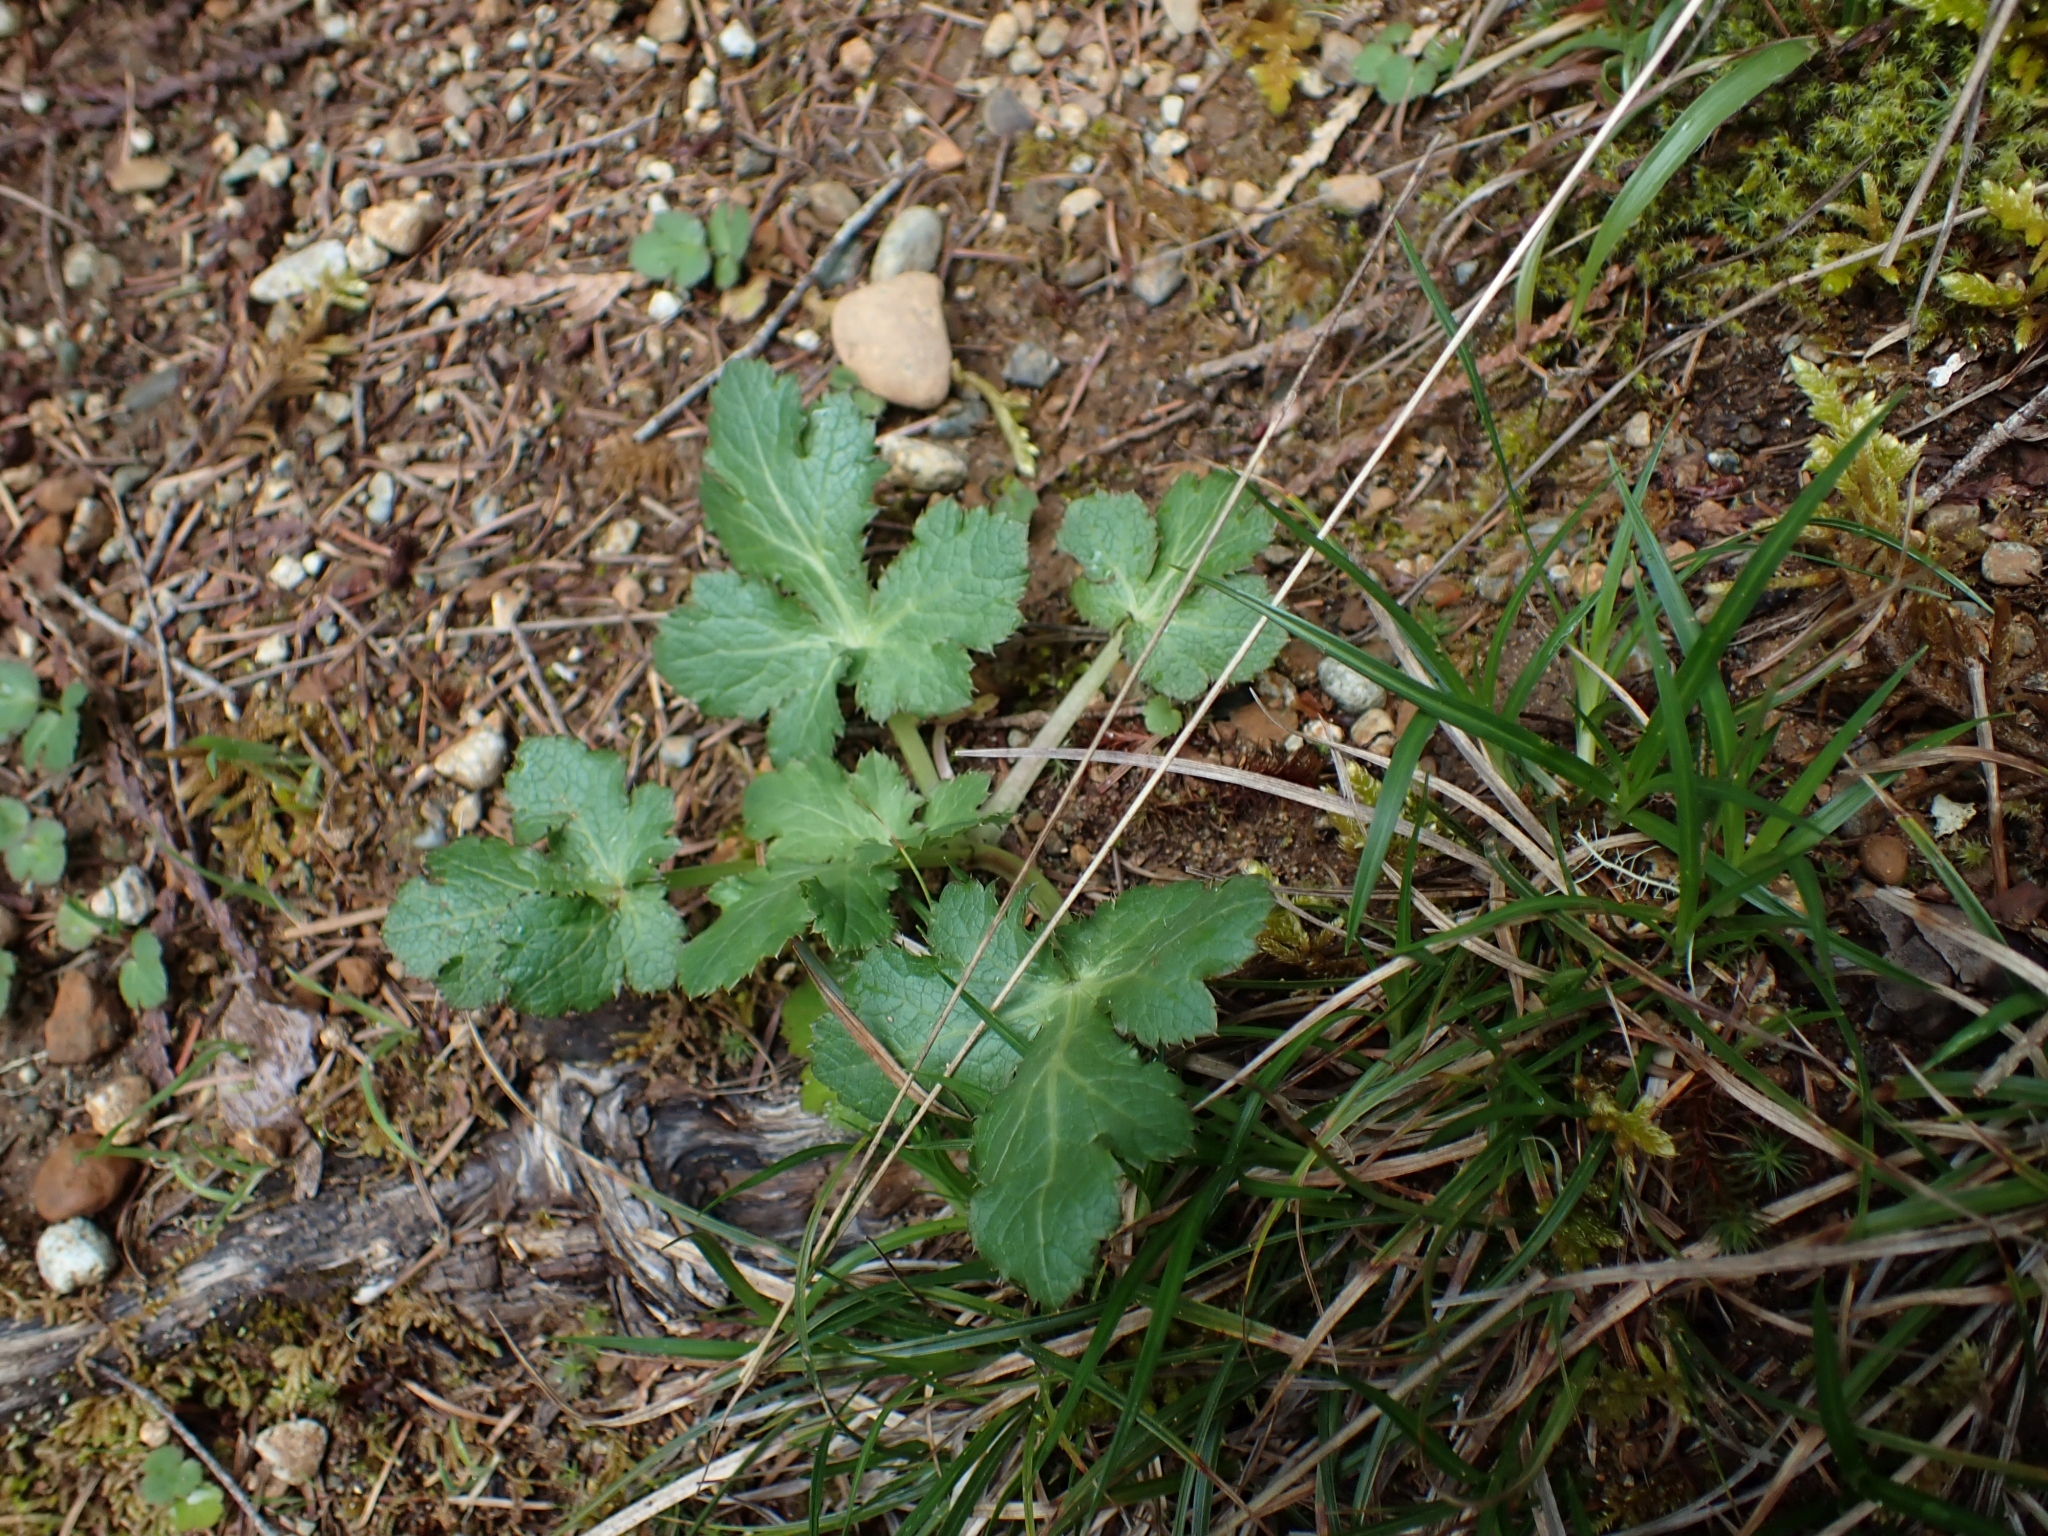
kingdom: Plantae
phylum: Tracheophyta
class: Magnoliopsida
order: Apiales
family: Apiaceae
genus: Sanicula
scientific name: Sanicula crassicaulis
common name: Western snakeroot
